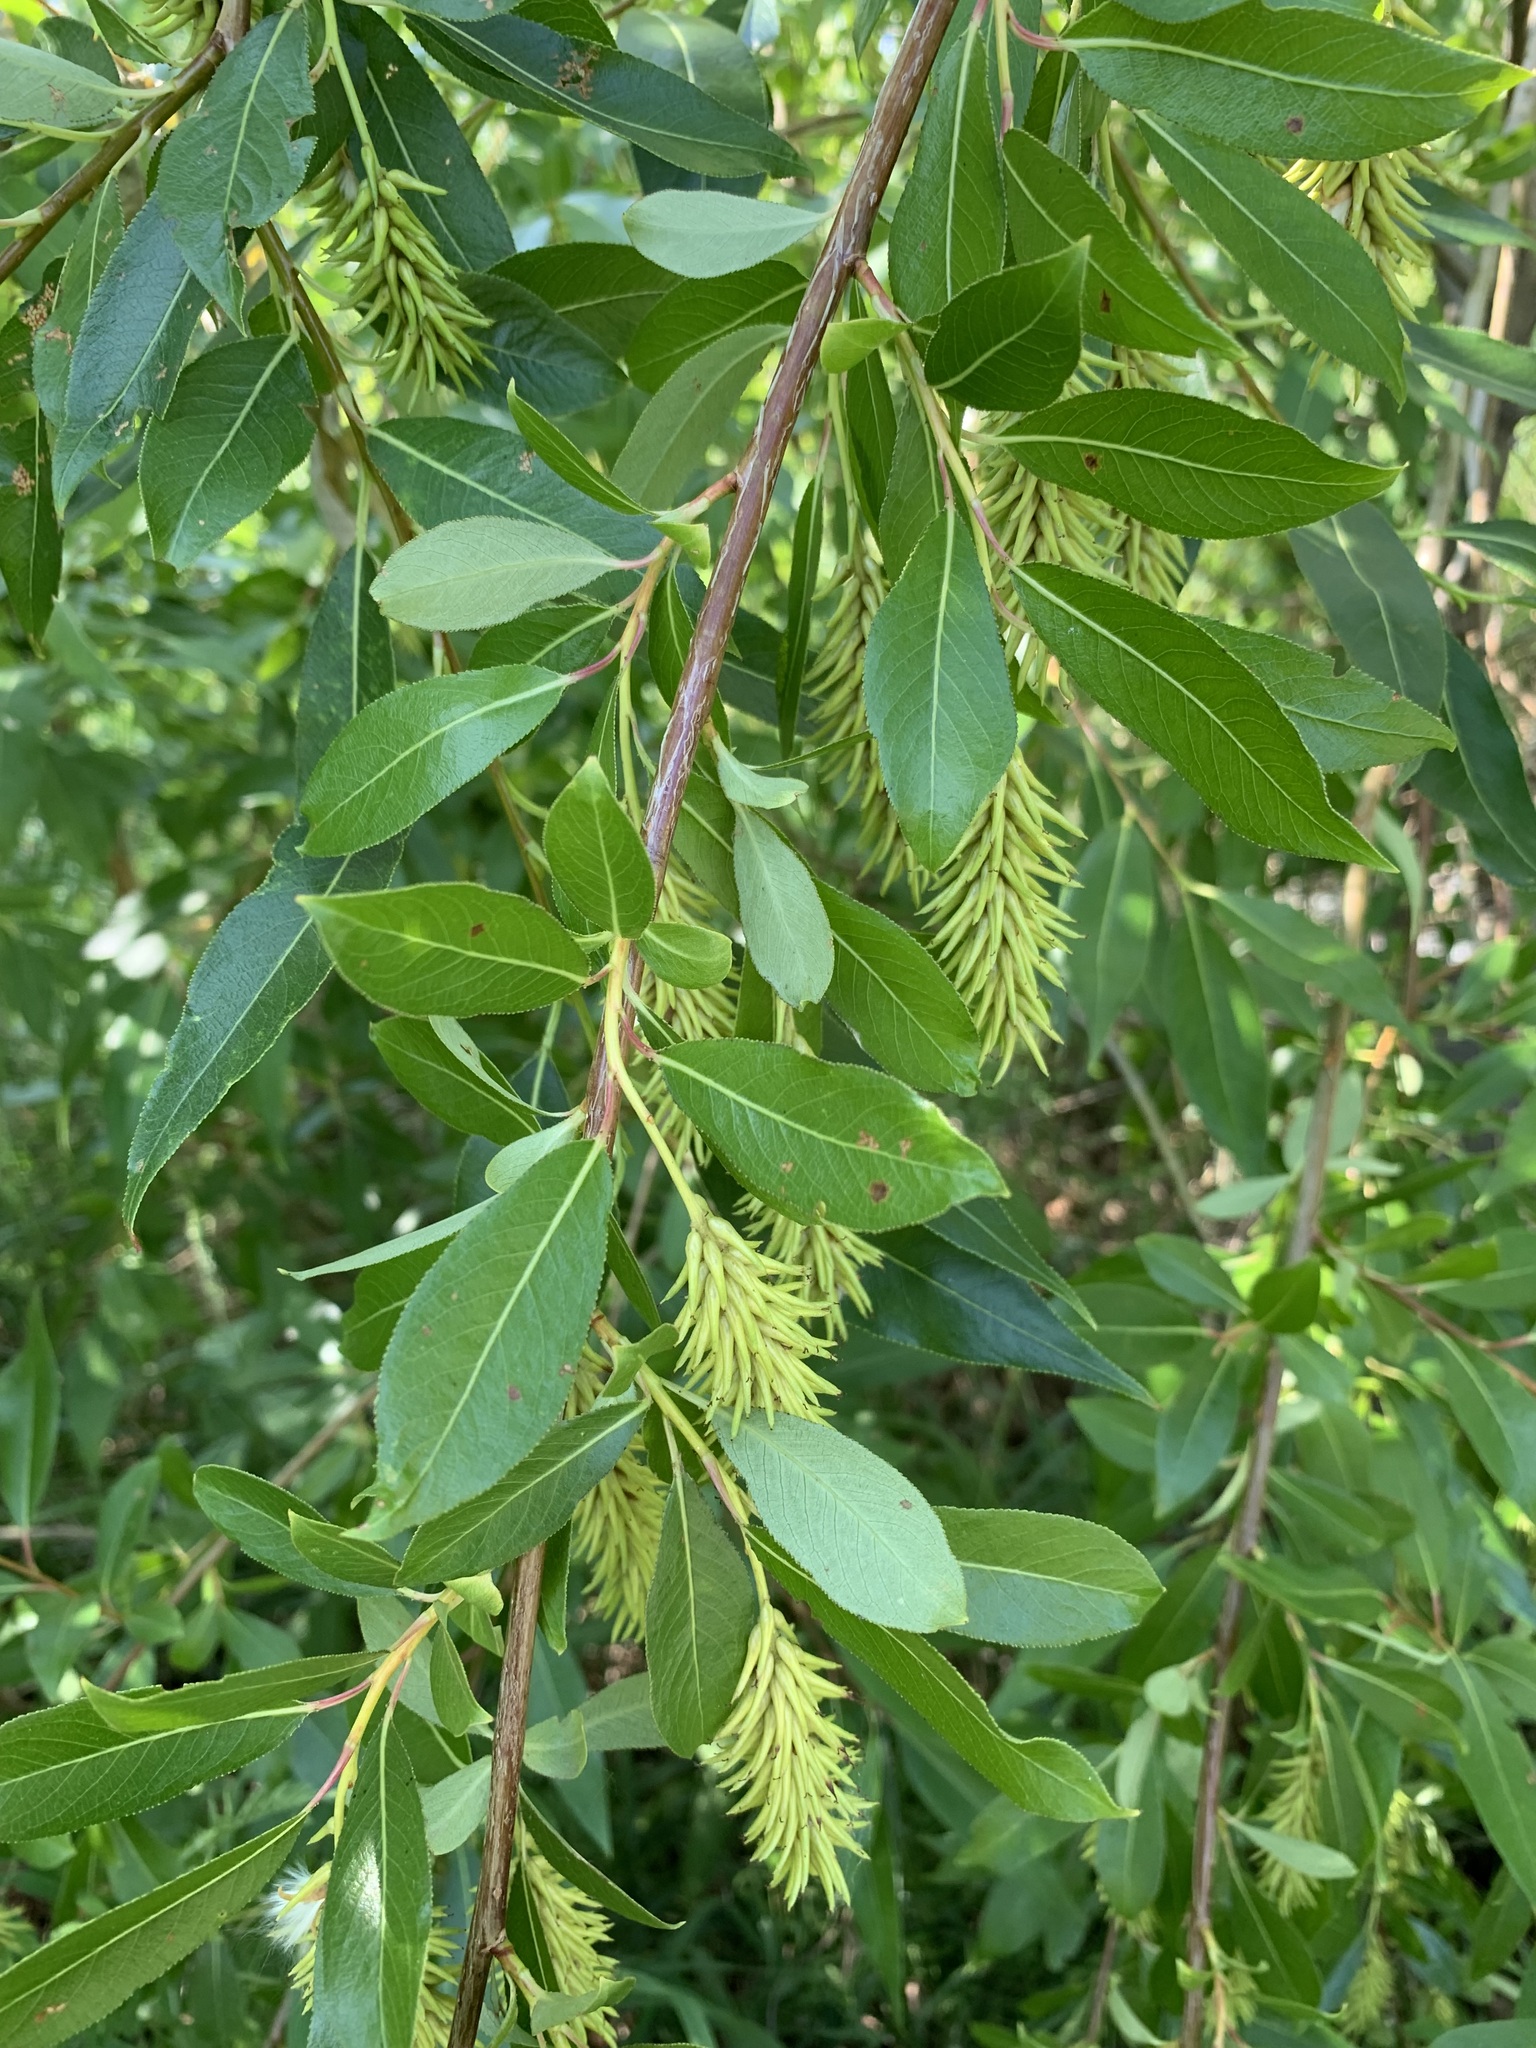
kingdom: Plantae
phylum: Tracheophyta
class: Magnoliopsida
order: Malpighiales
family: Salicaceae
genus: Salix
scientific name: Salix pentandra
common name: Bay willow
